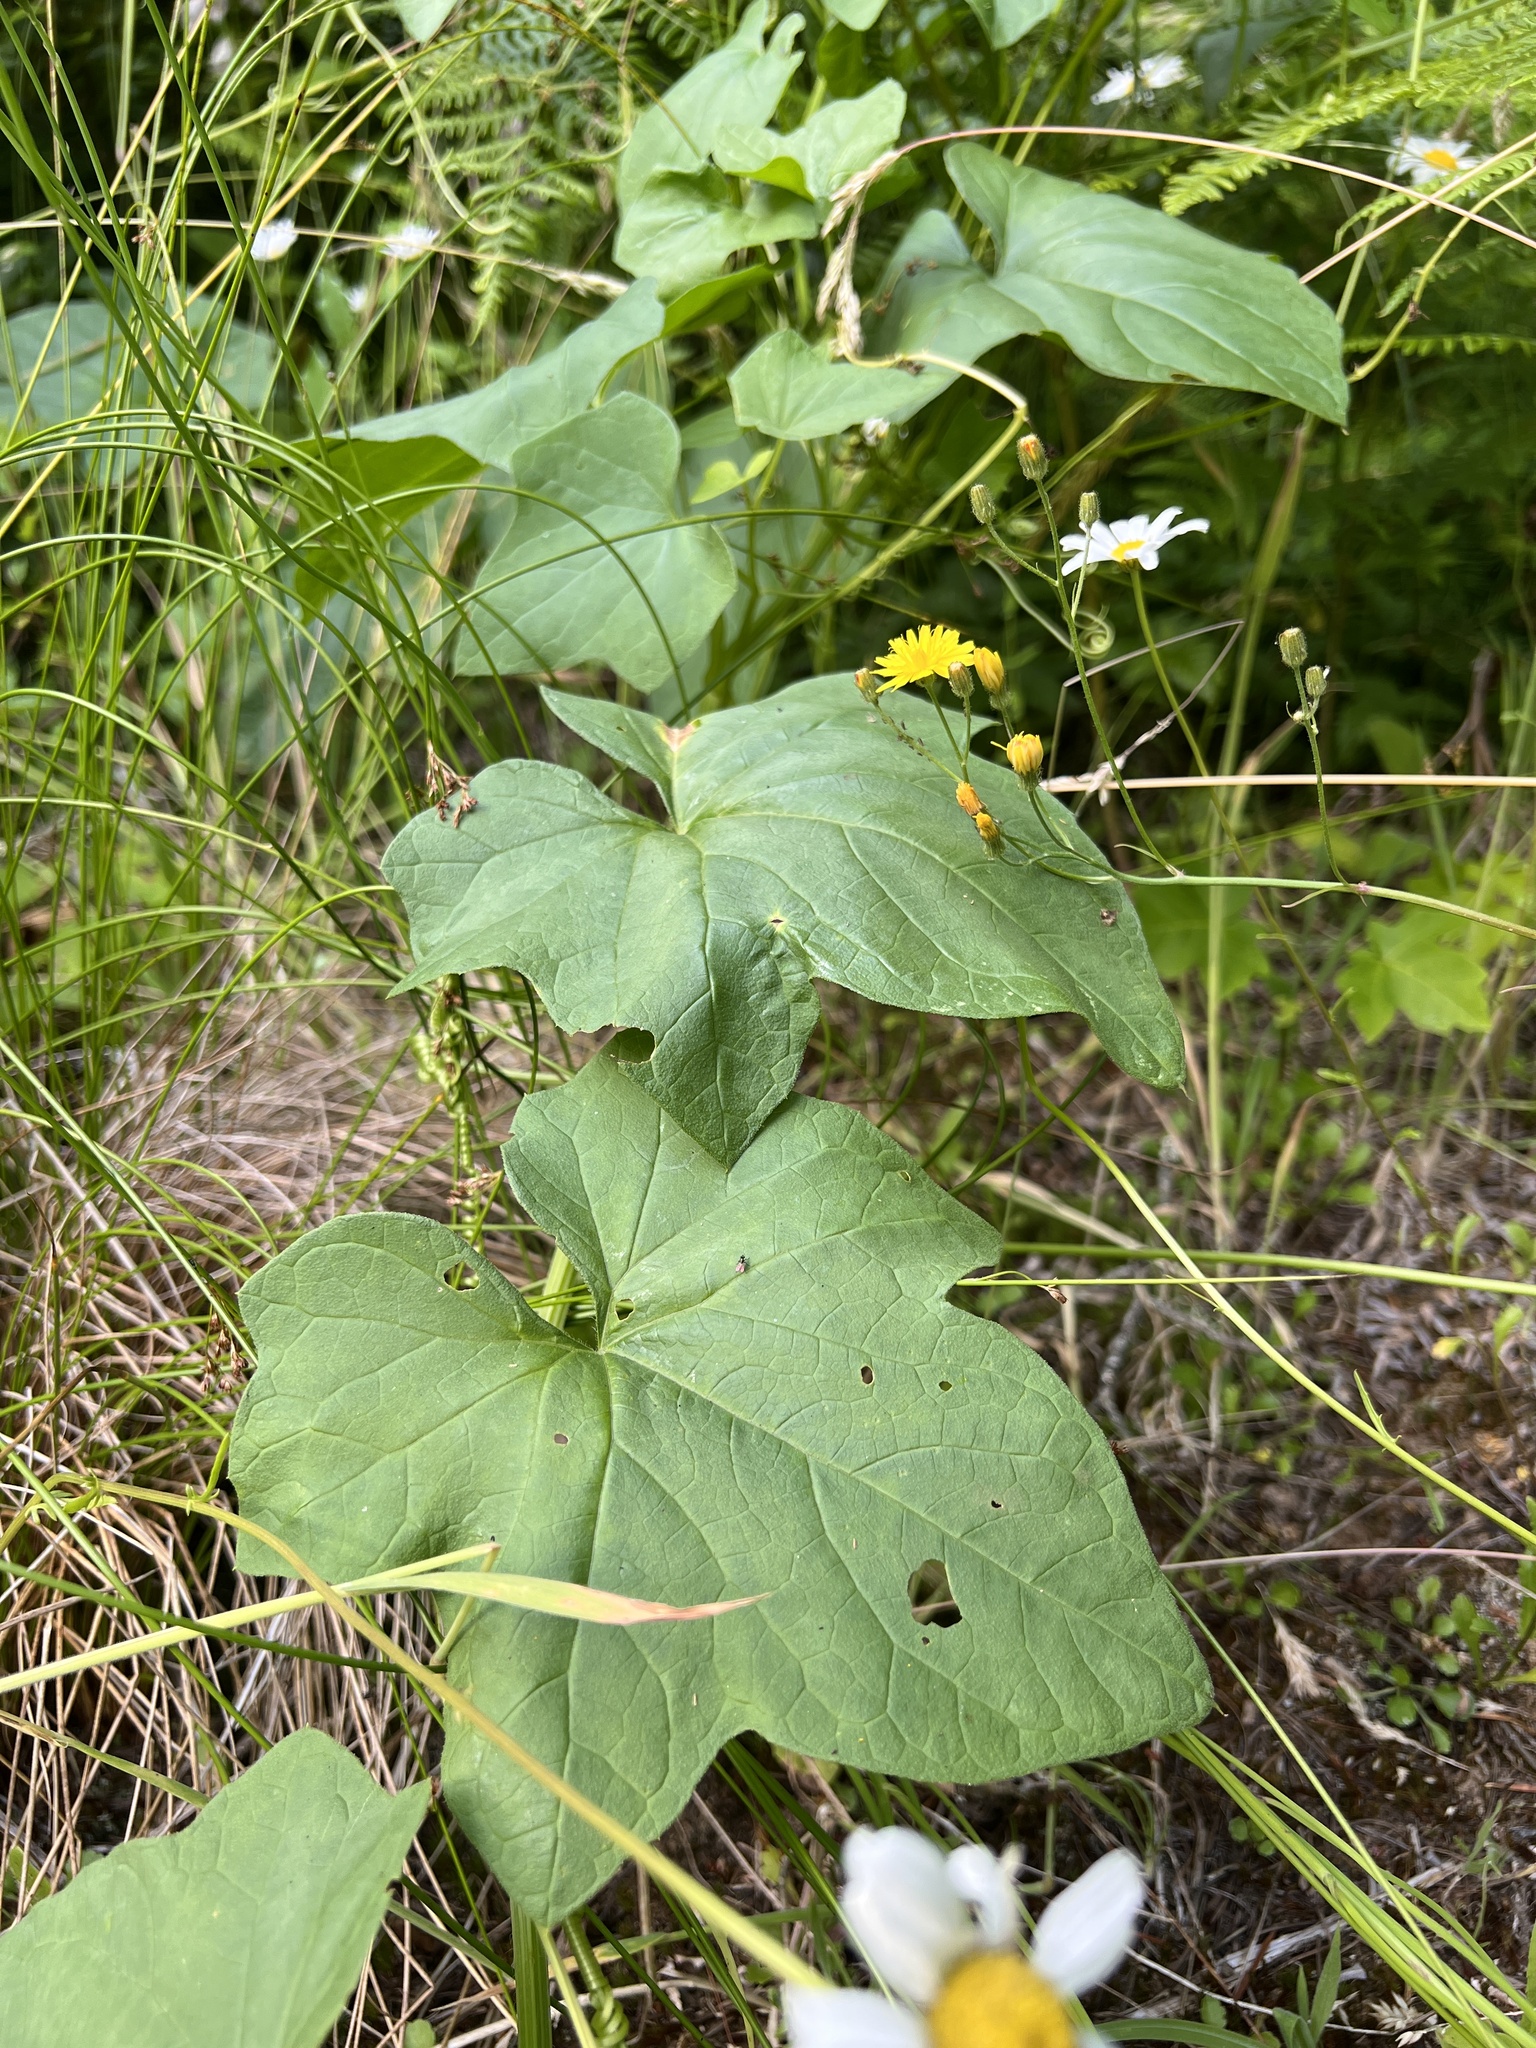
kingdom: Plantae
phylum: Tracheophyta
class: Magnoliopsida
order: Cucurbitales
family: Cucurbitaceae
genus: Marah
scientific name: Marah oregana
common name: Coastal manroot
